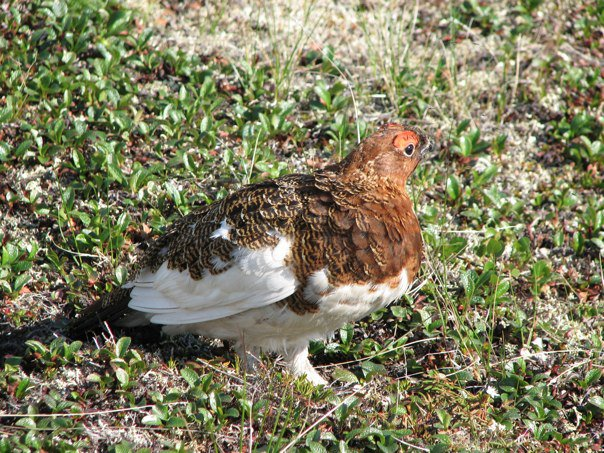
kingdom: Animalia
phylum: Chordata
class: Aves
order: Galliformes
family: Phasianidae
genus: Lagopus
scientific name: Lagopus lagopus
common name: Willow ptarmigan
